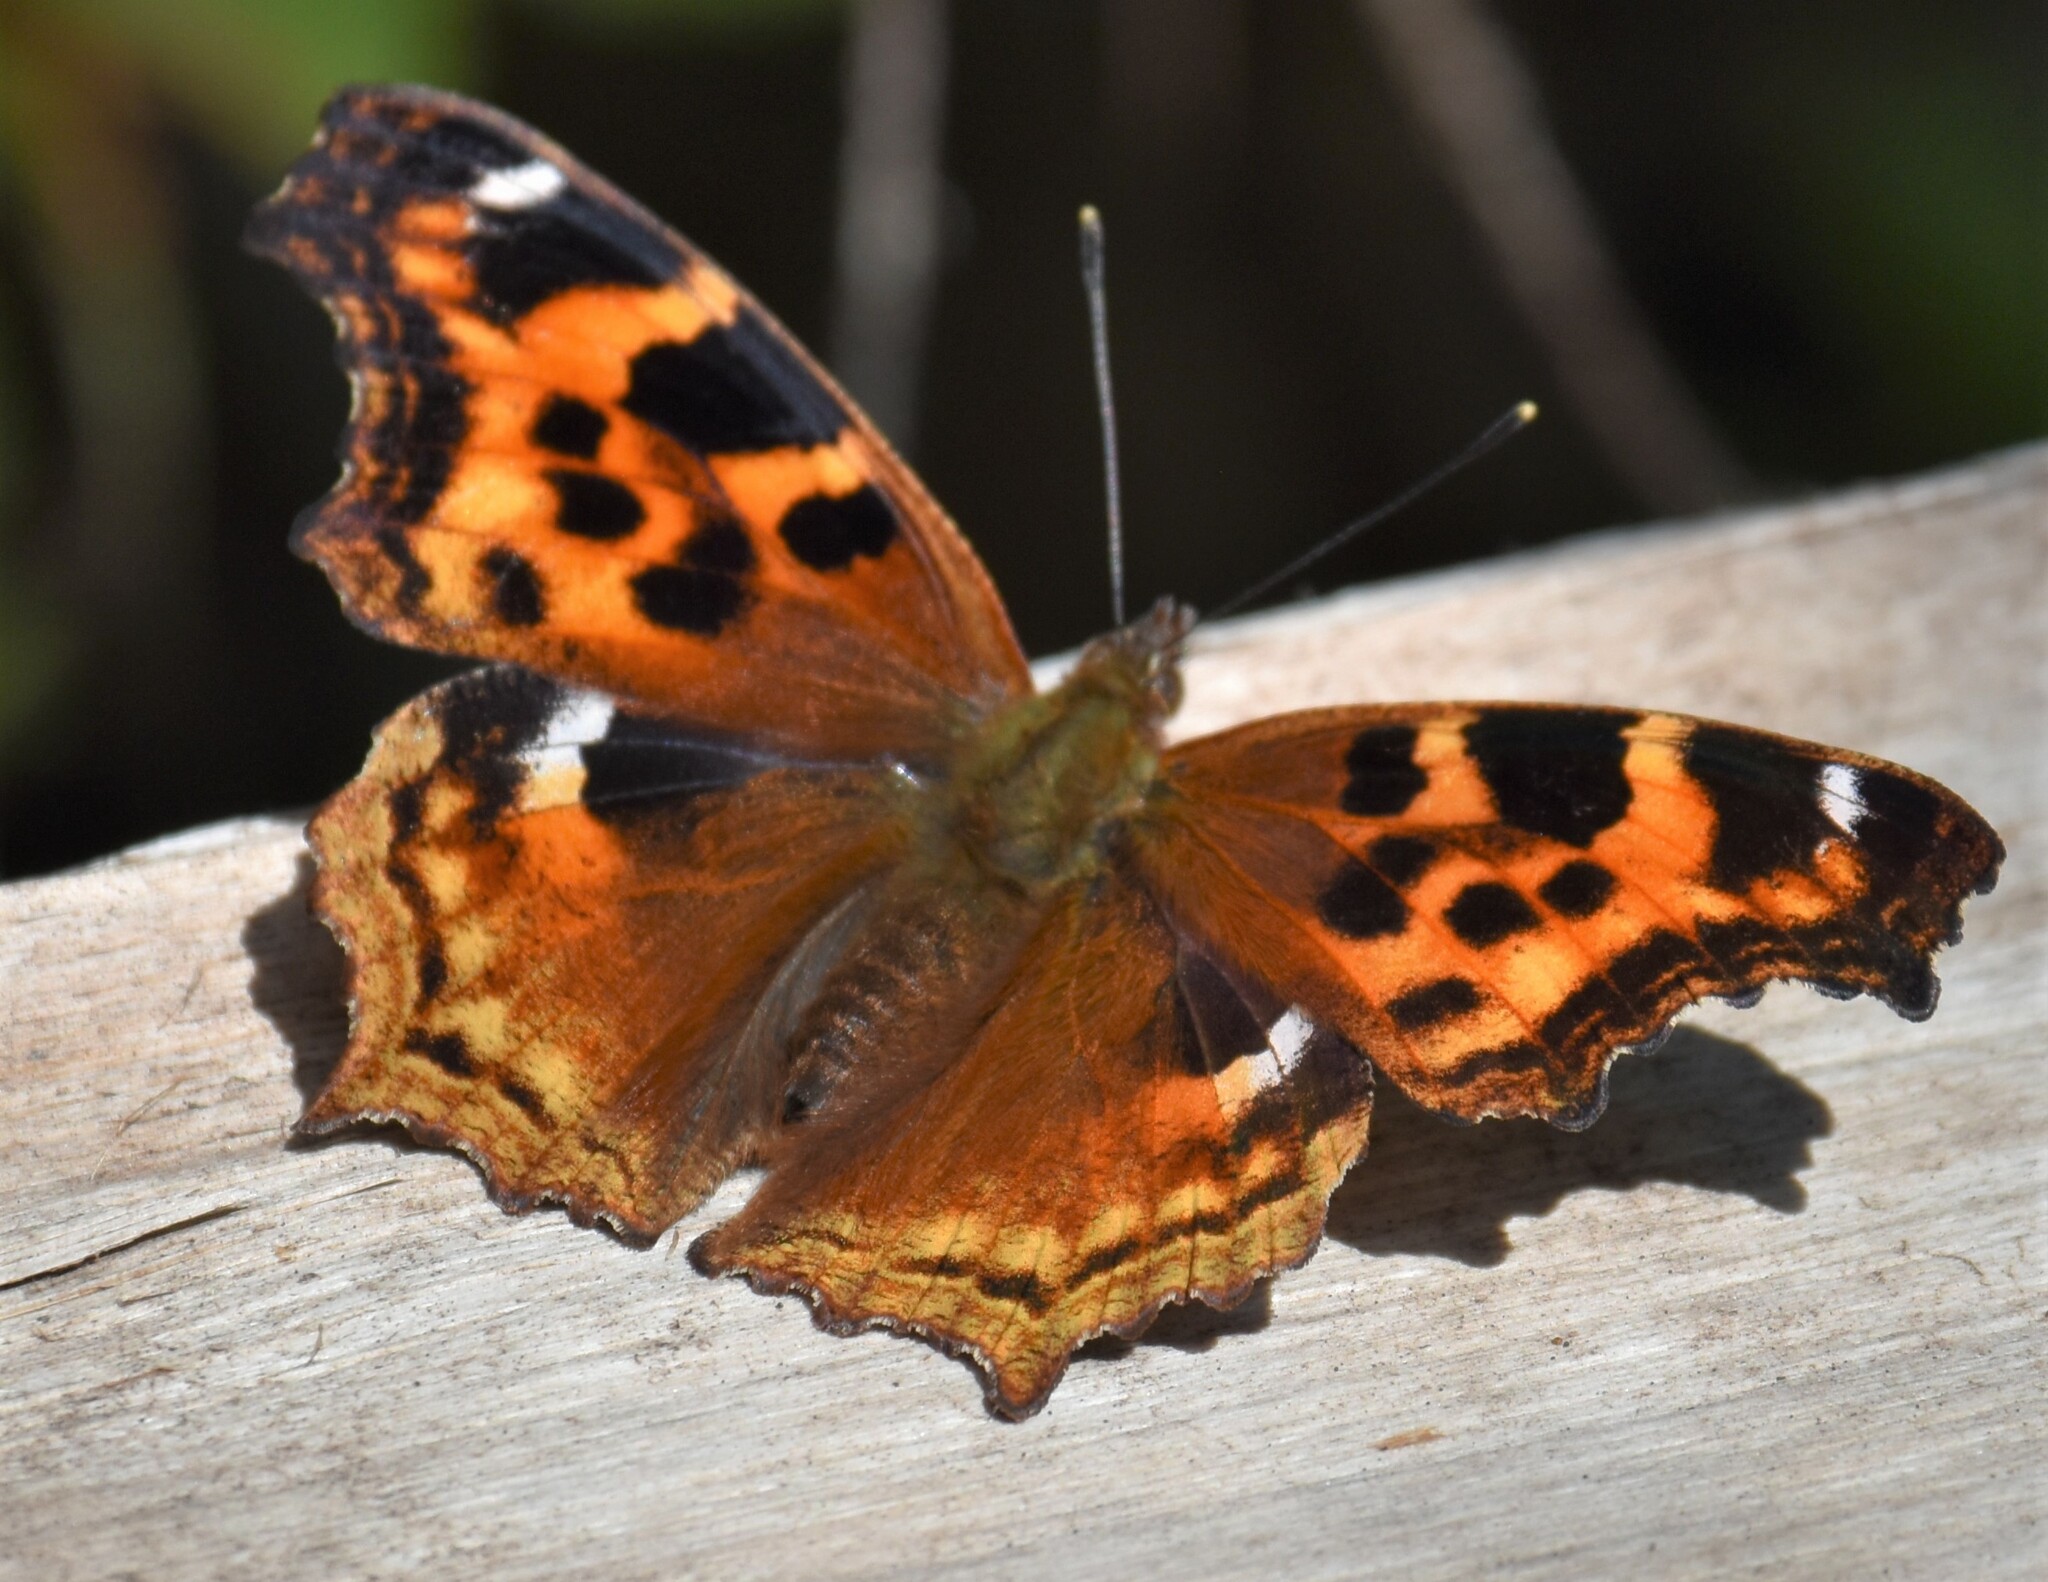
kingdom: Animalia
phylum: Arthropoda
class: Insecta
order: Lepidoptera
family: Nymphalidae
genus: Polygonia
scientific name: Polygonia vaualbum
